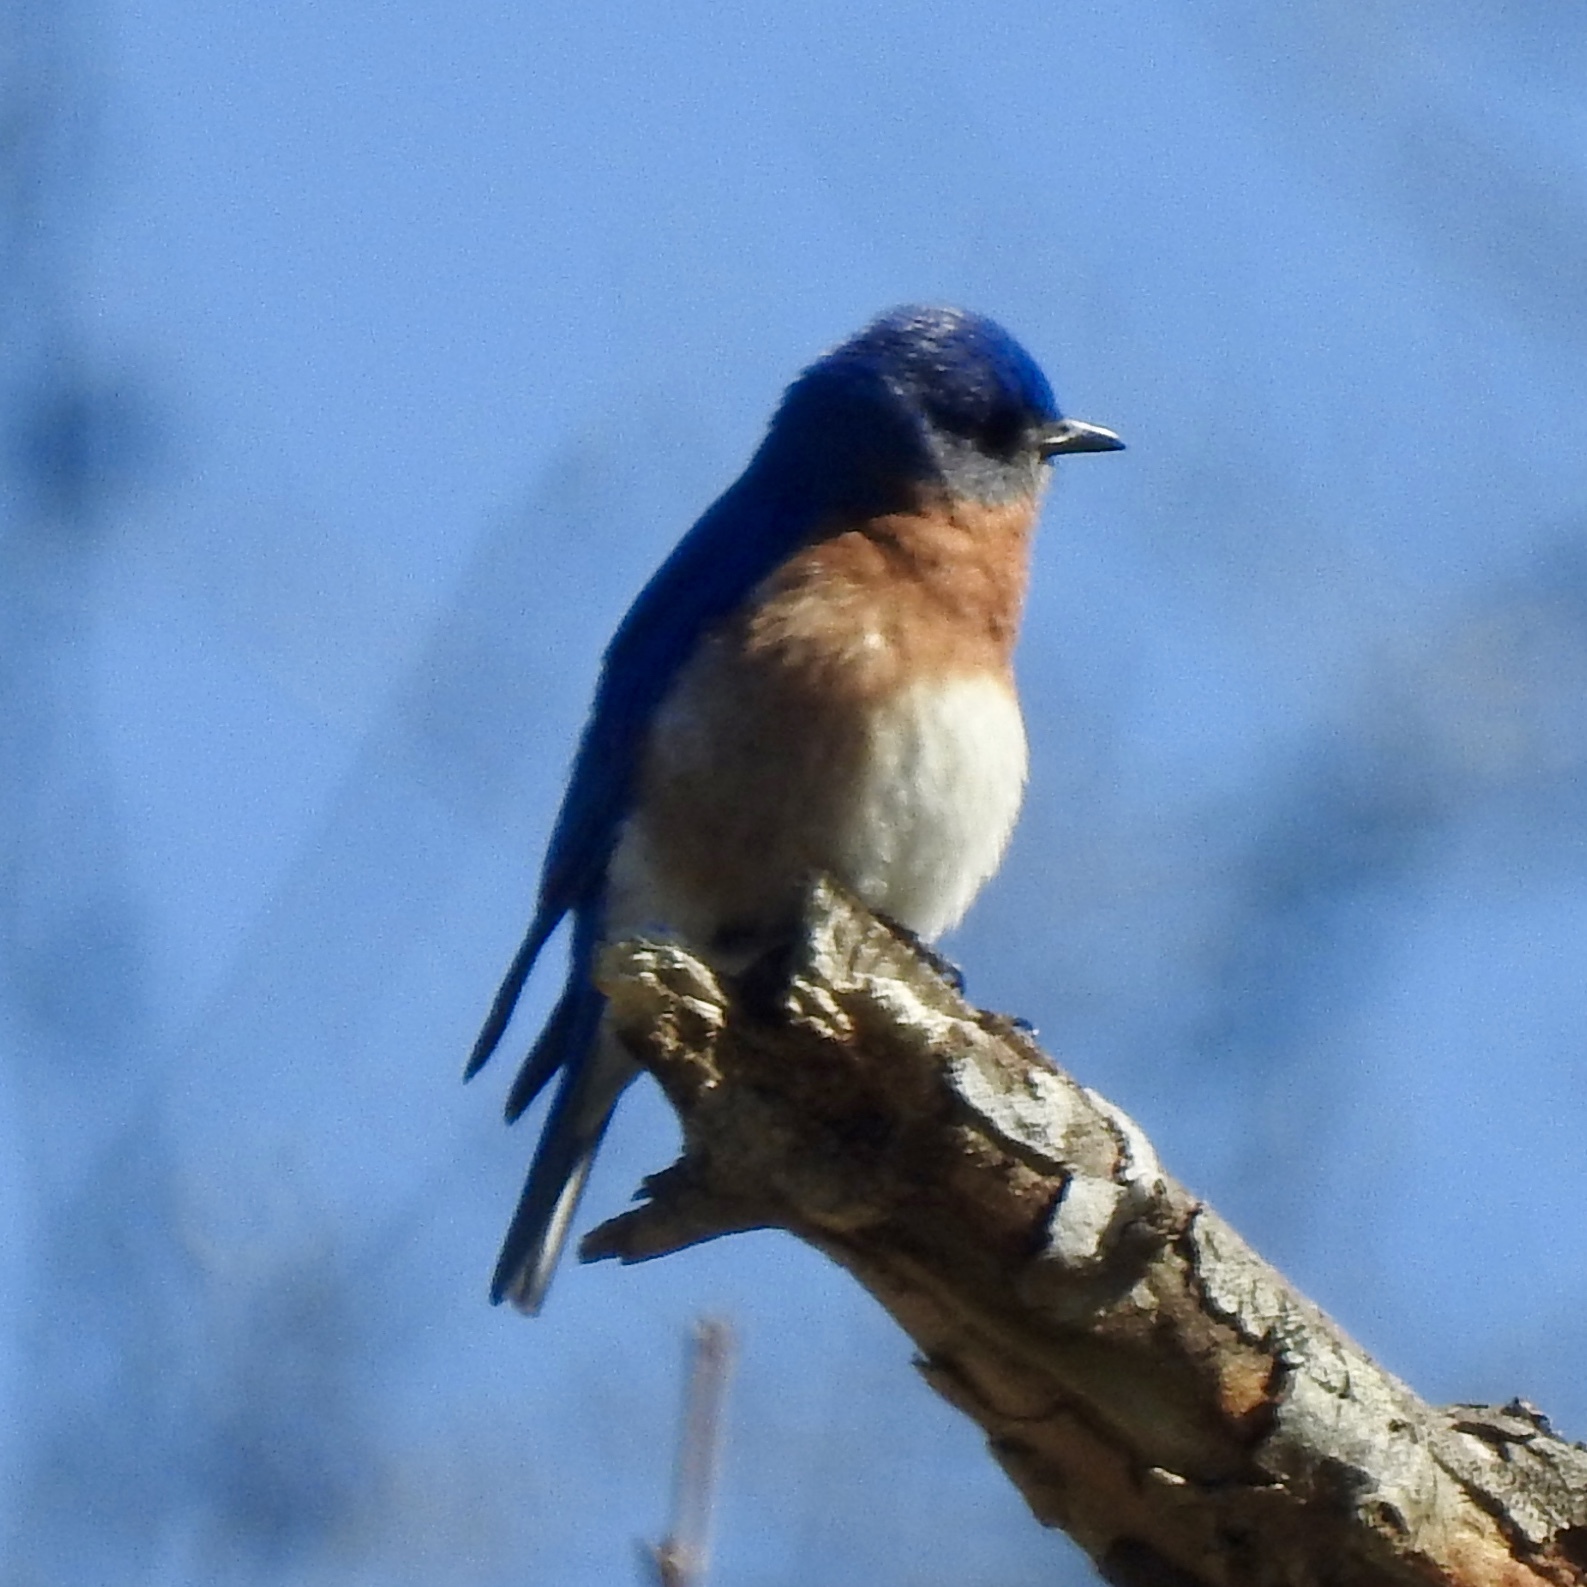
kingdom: Animalia
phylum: Chordata
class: Aves
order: Passeriformes
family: Turdidae
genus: Sialia
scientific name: Sialia sialis
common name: Eastern bluebird
